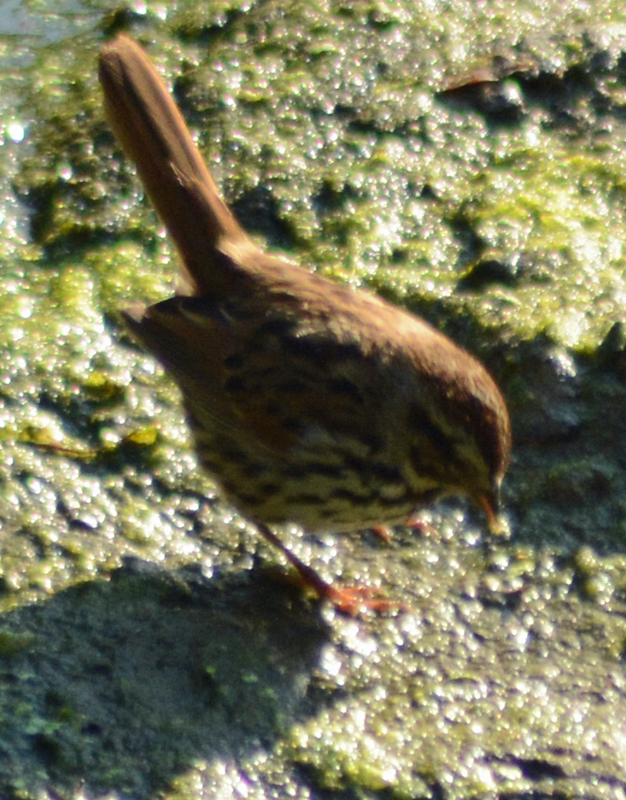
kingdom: Animalia
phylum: Chordata
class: Aves
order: Passeriformes
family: Passerellidae
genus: Melospiza
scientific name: Melospiza melodia
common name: Song sparrow
